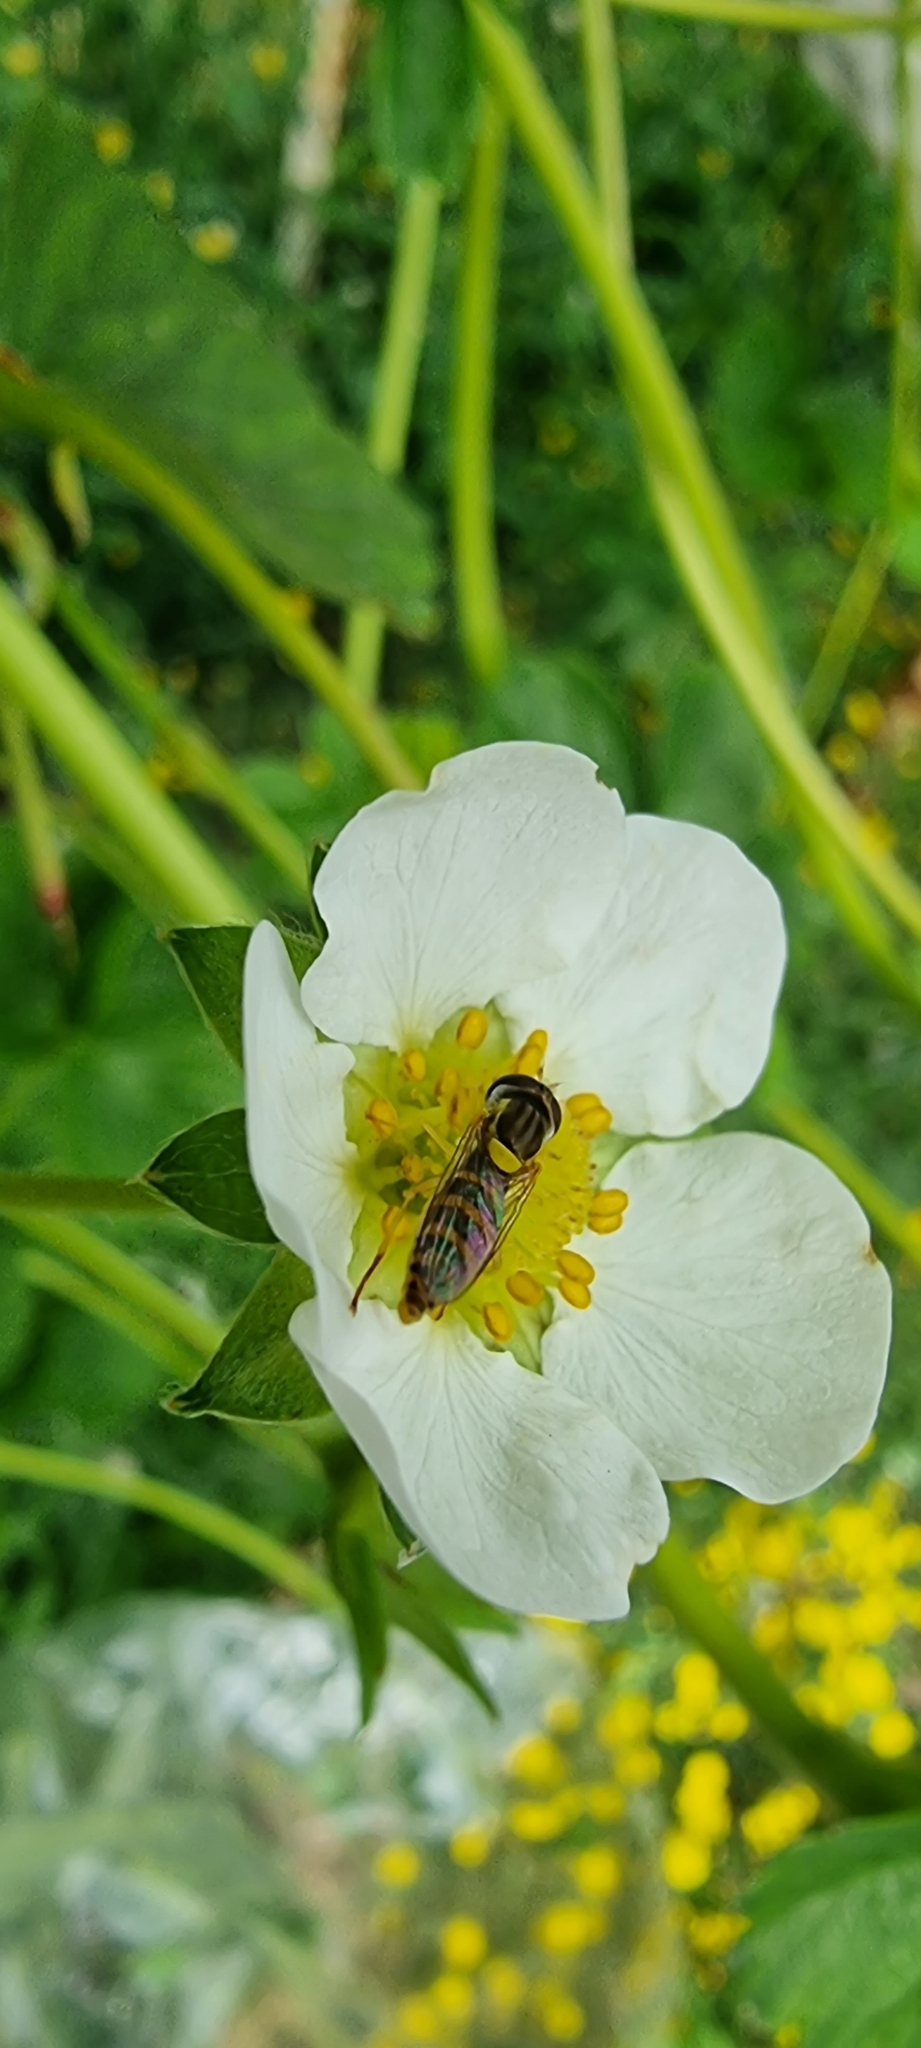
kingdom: Animalia
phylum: Arthropoda
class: Insecta
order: Diptera
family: Syrphidae
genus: Sphaerophoria
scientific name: Sphaerophoria
